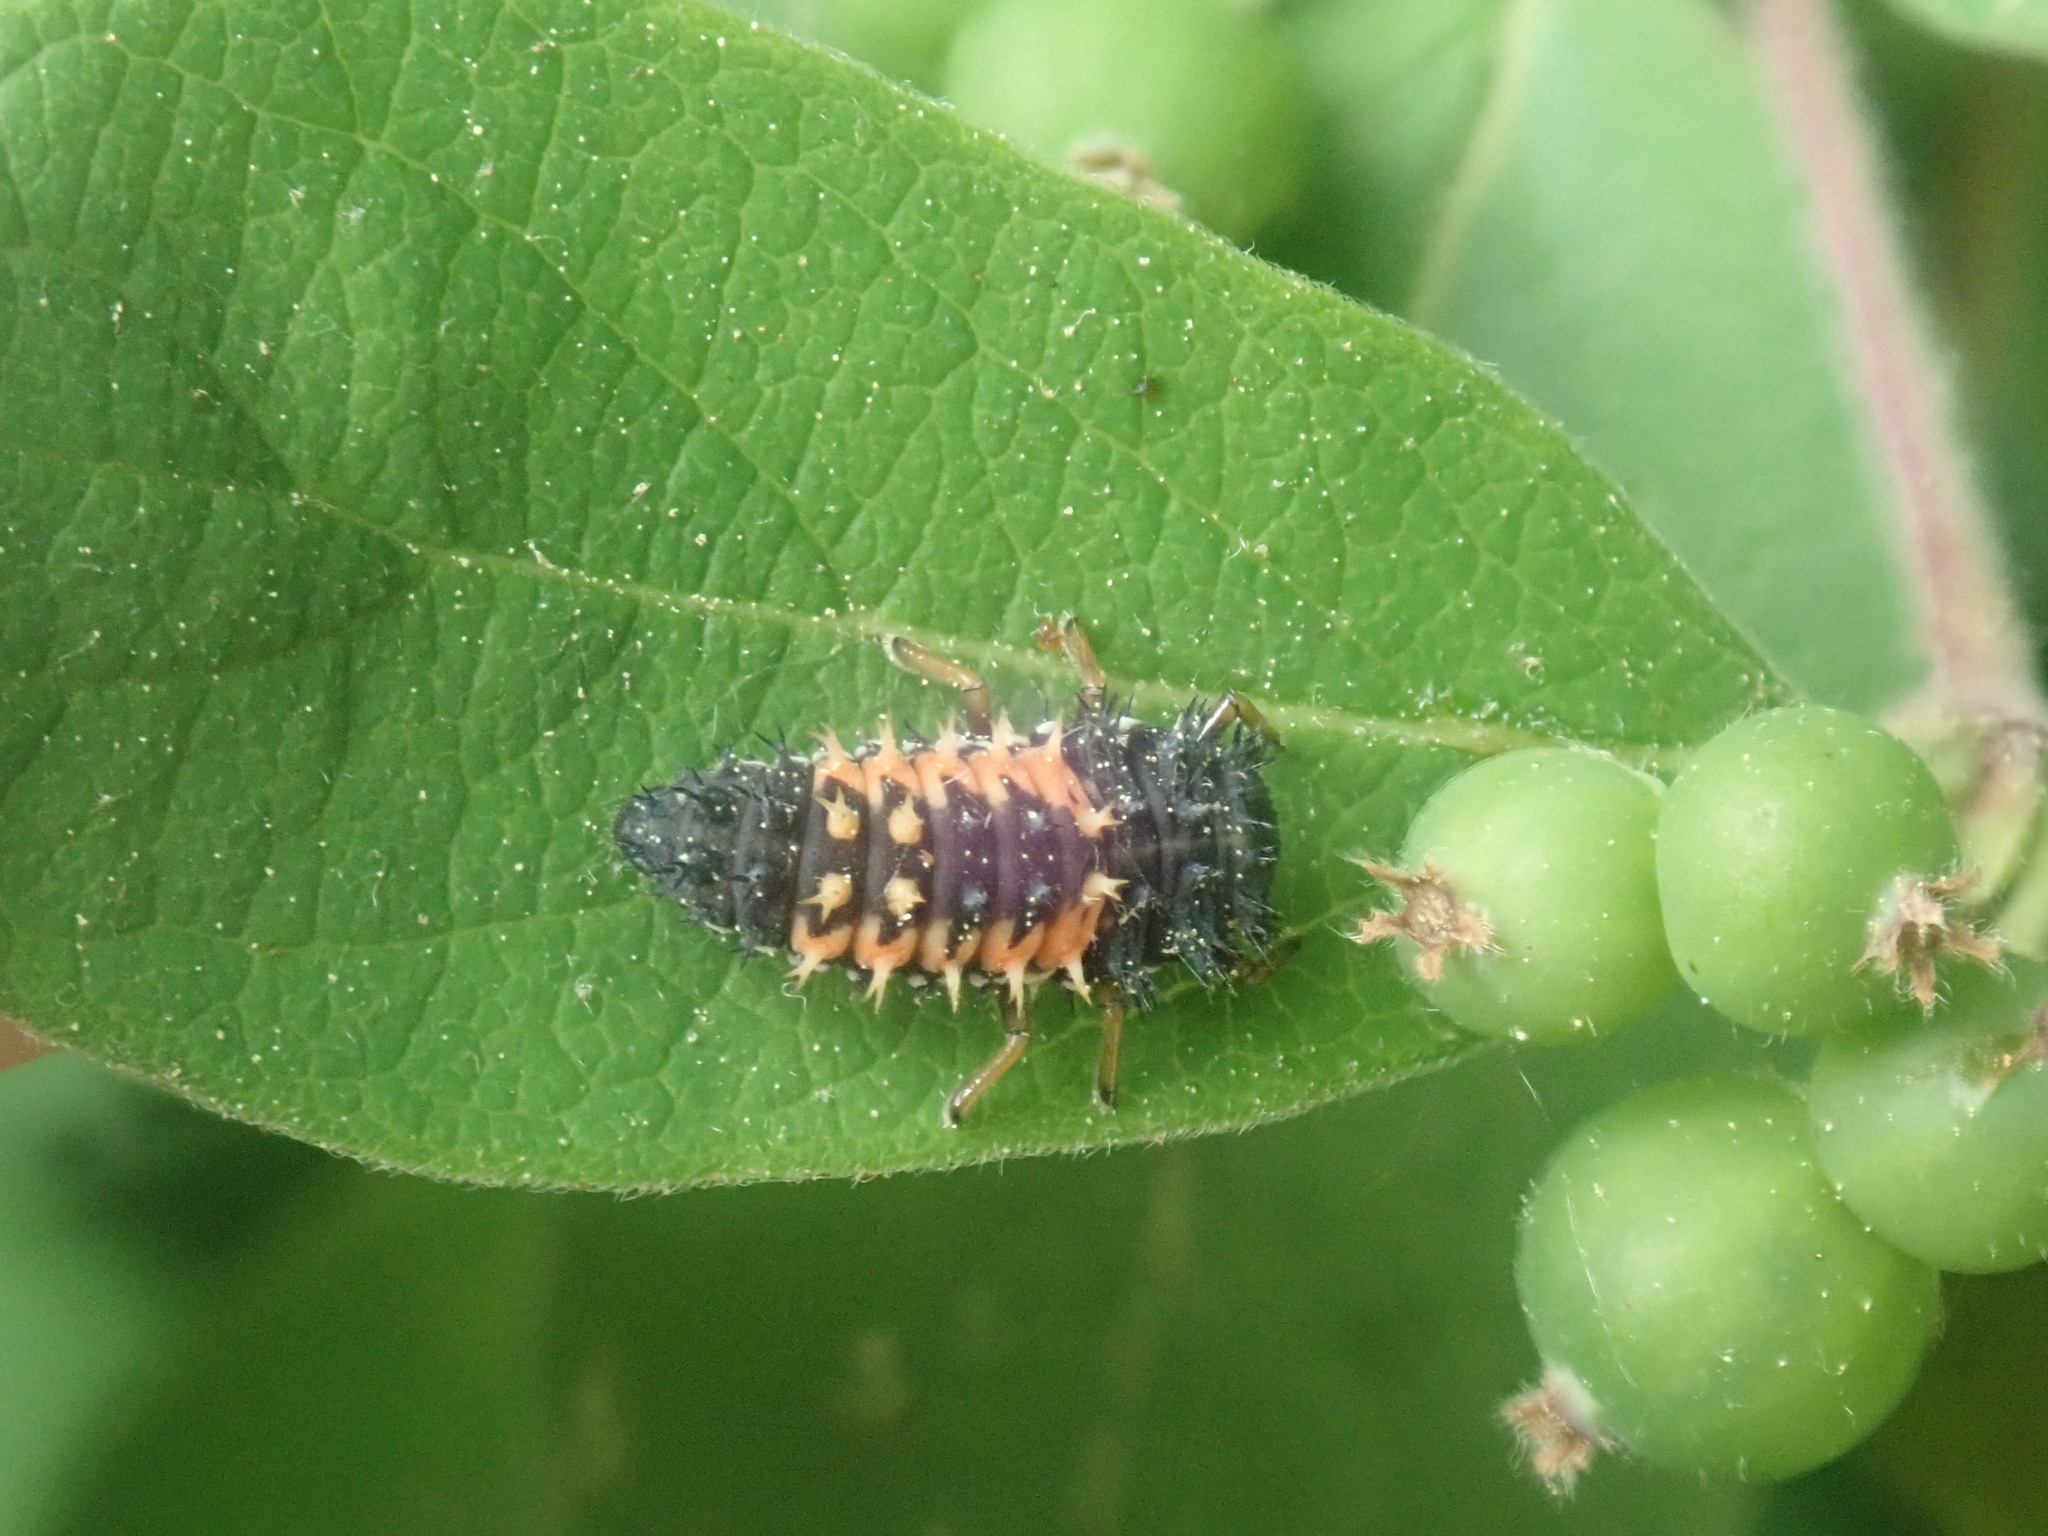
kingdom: Animalia
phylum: Arthropoda
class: Insecta
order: Coleoptera
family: Coccinellidae
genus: Harmonia
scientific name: Harmonia axyridis
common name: Harlequin ladybird
